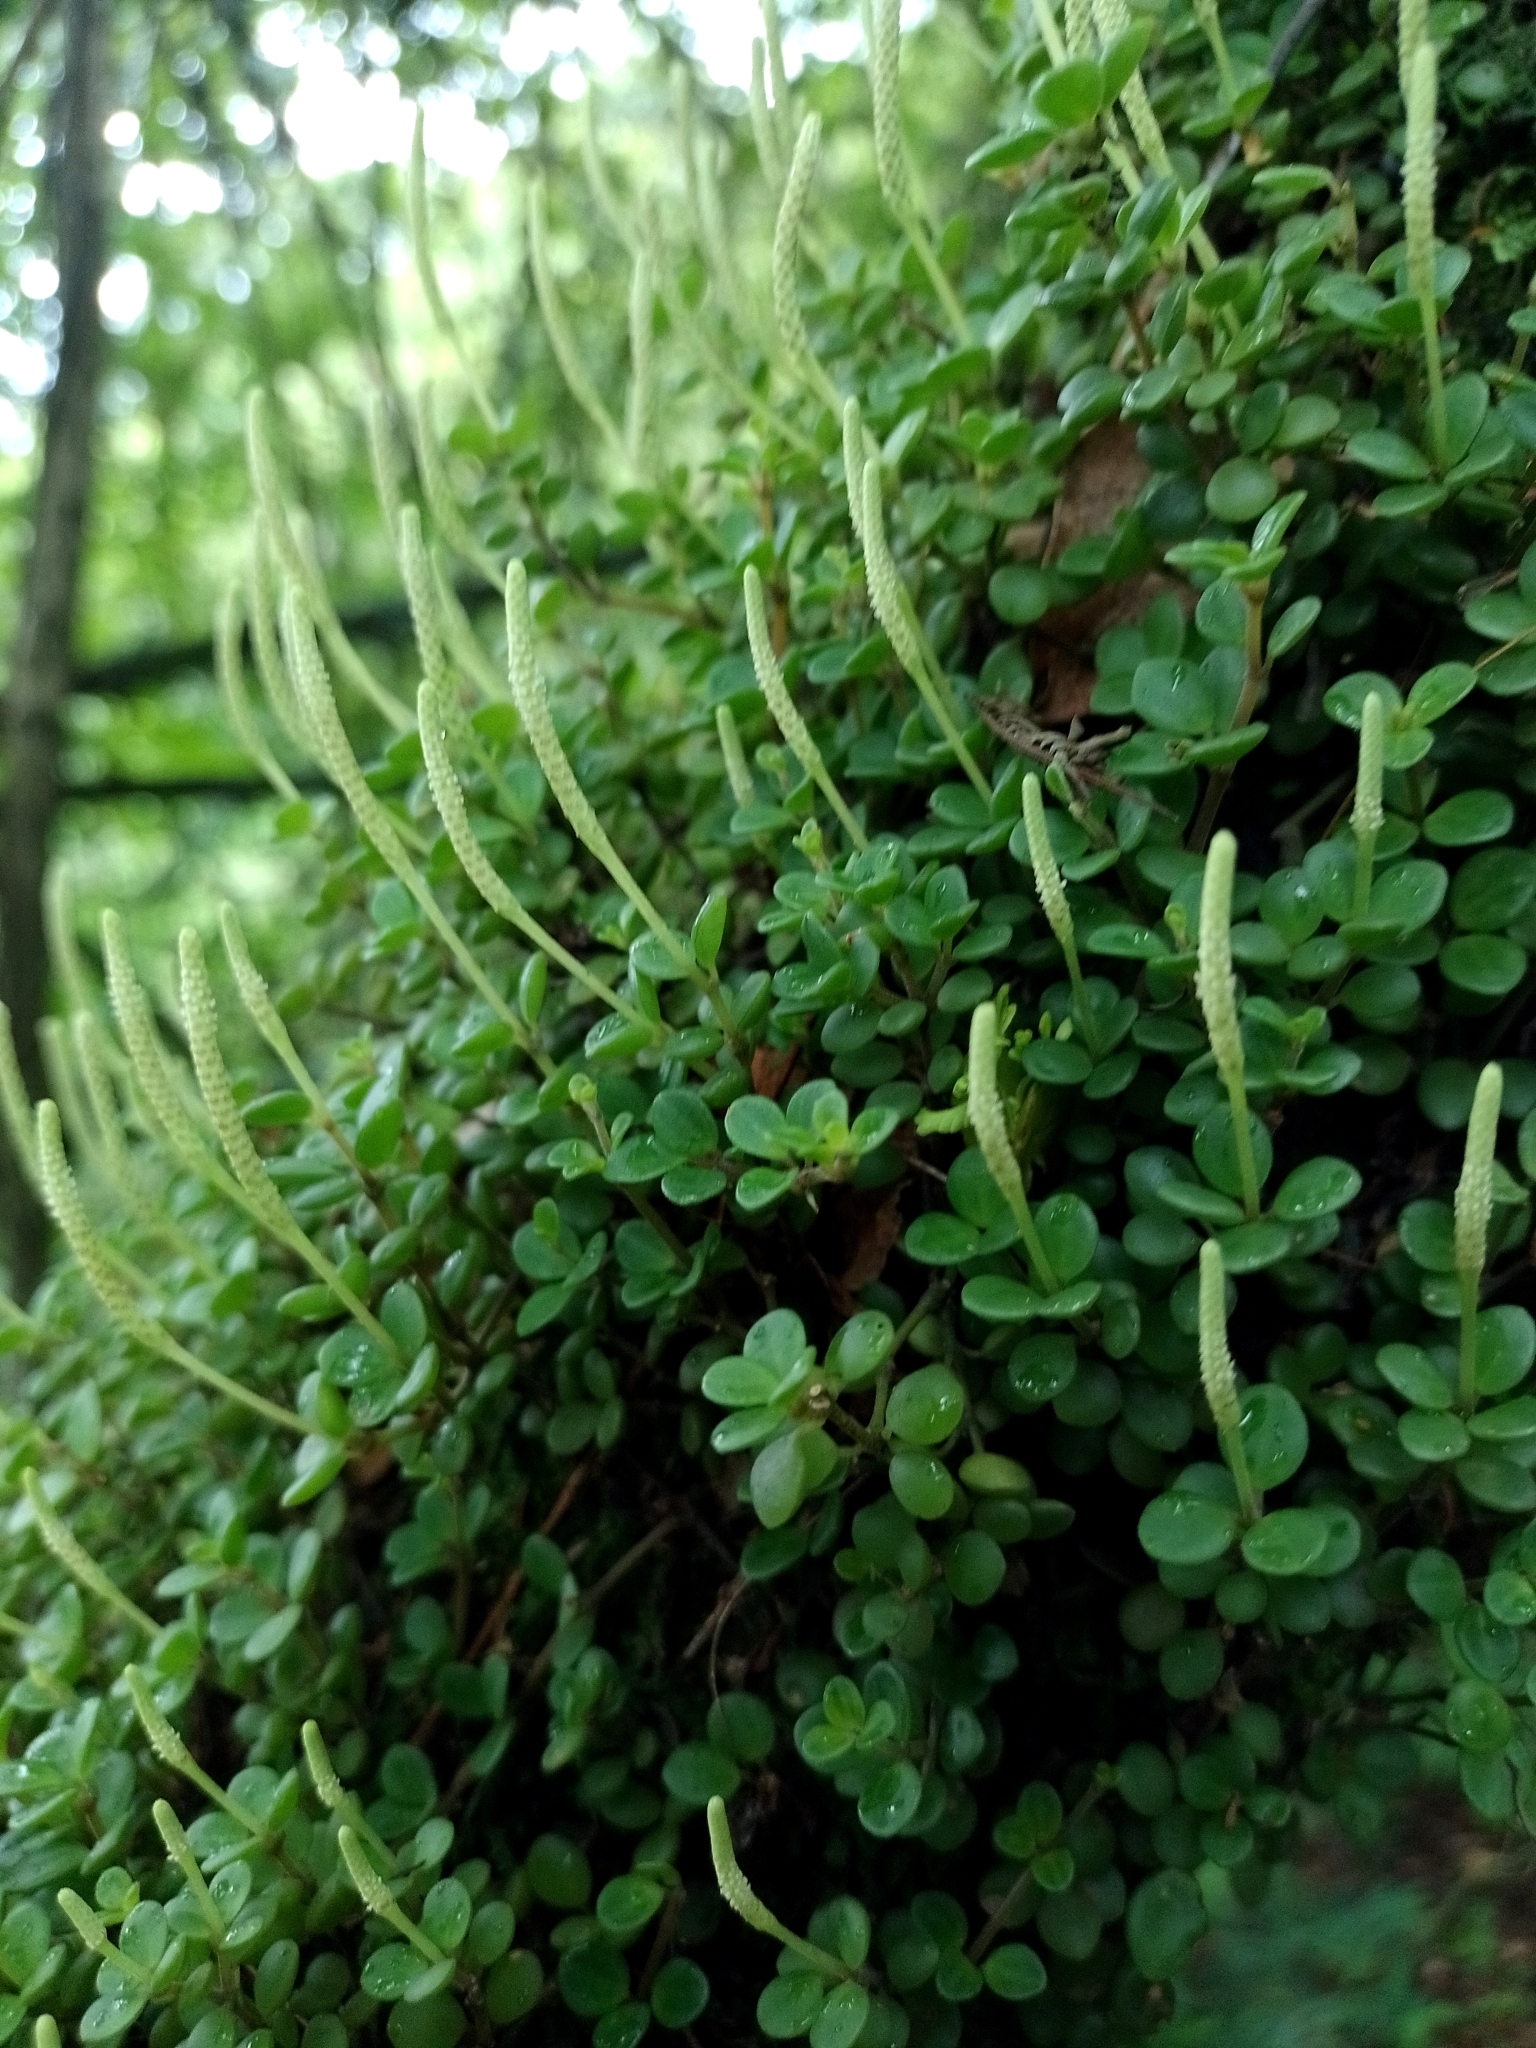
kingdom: Plantae
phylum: Tracheophyta
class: Magnoliopsida
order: Piperales
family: Piperaceae
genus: Peperomia
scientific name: Peperomia lorentzii
